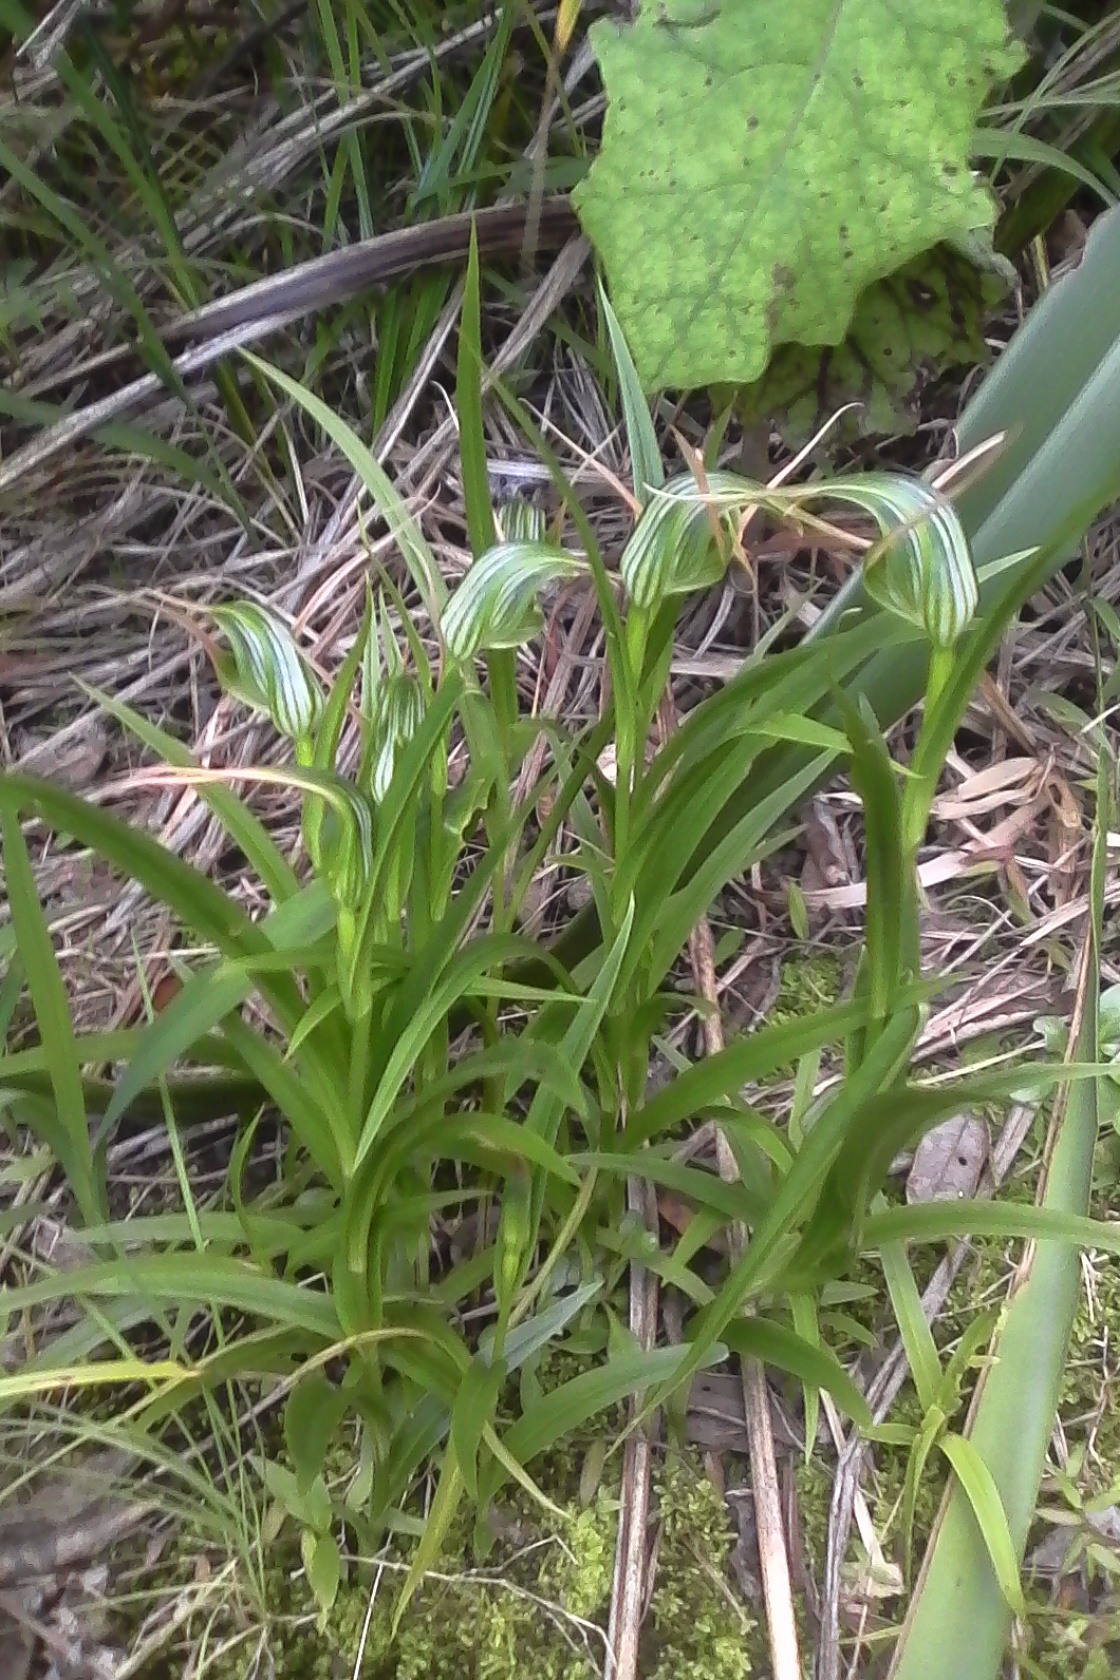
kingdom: Plantae
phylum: Tracheophyta
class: Liliopsida
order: Asparagales
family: Orchidaceae
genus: Pterostylis
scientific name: Pterostylis banksii
